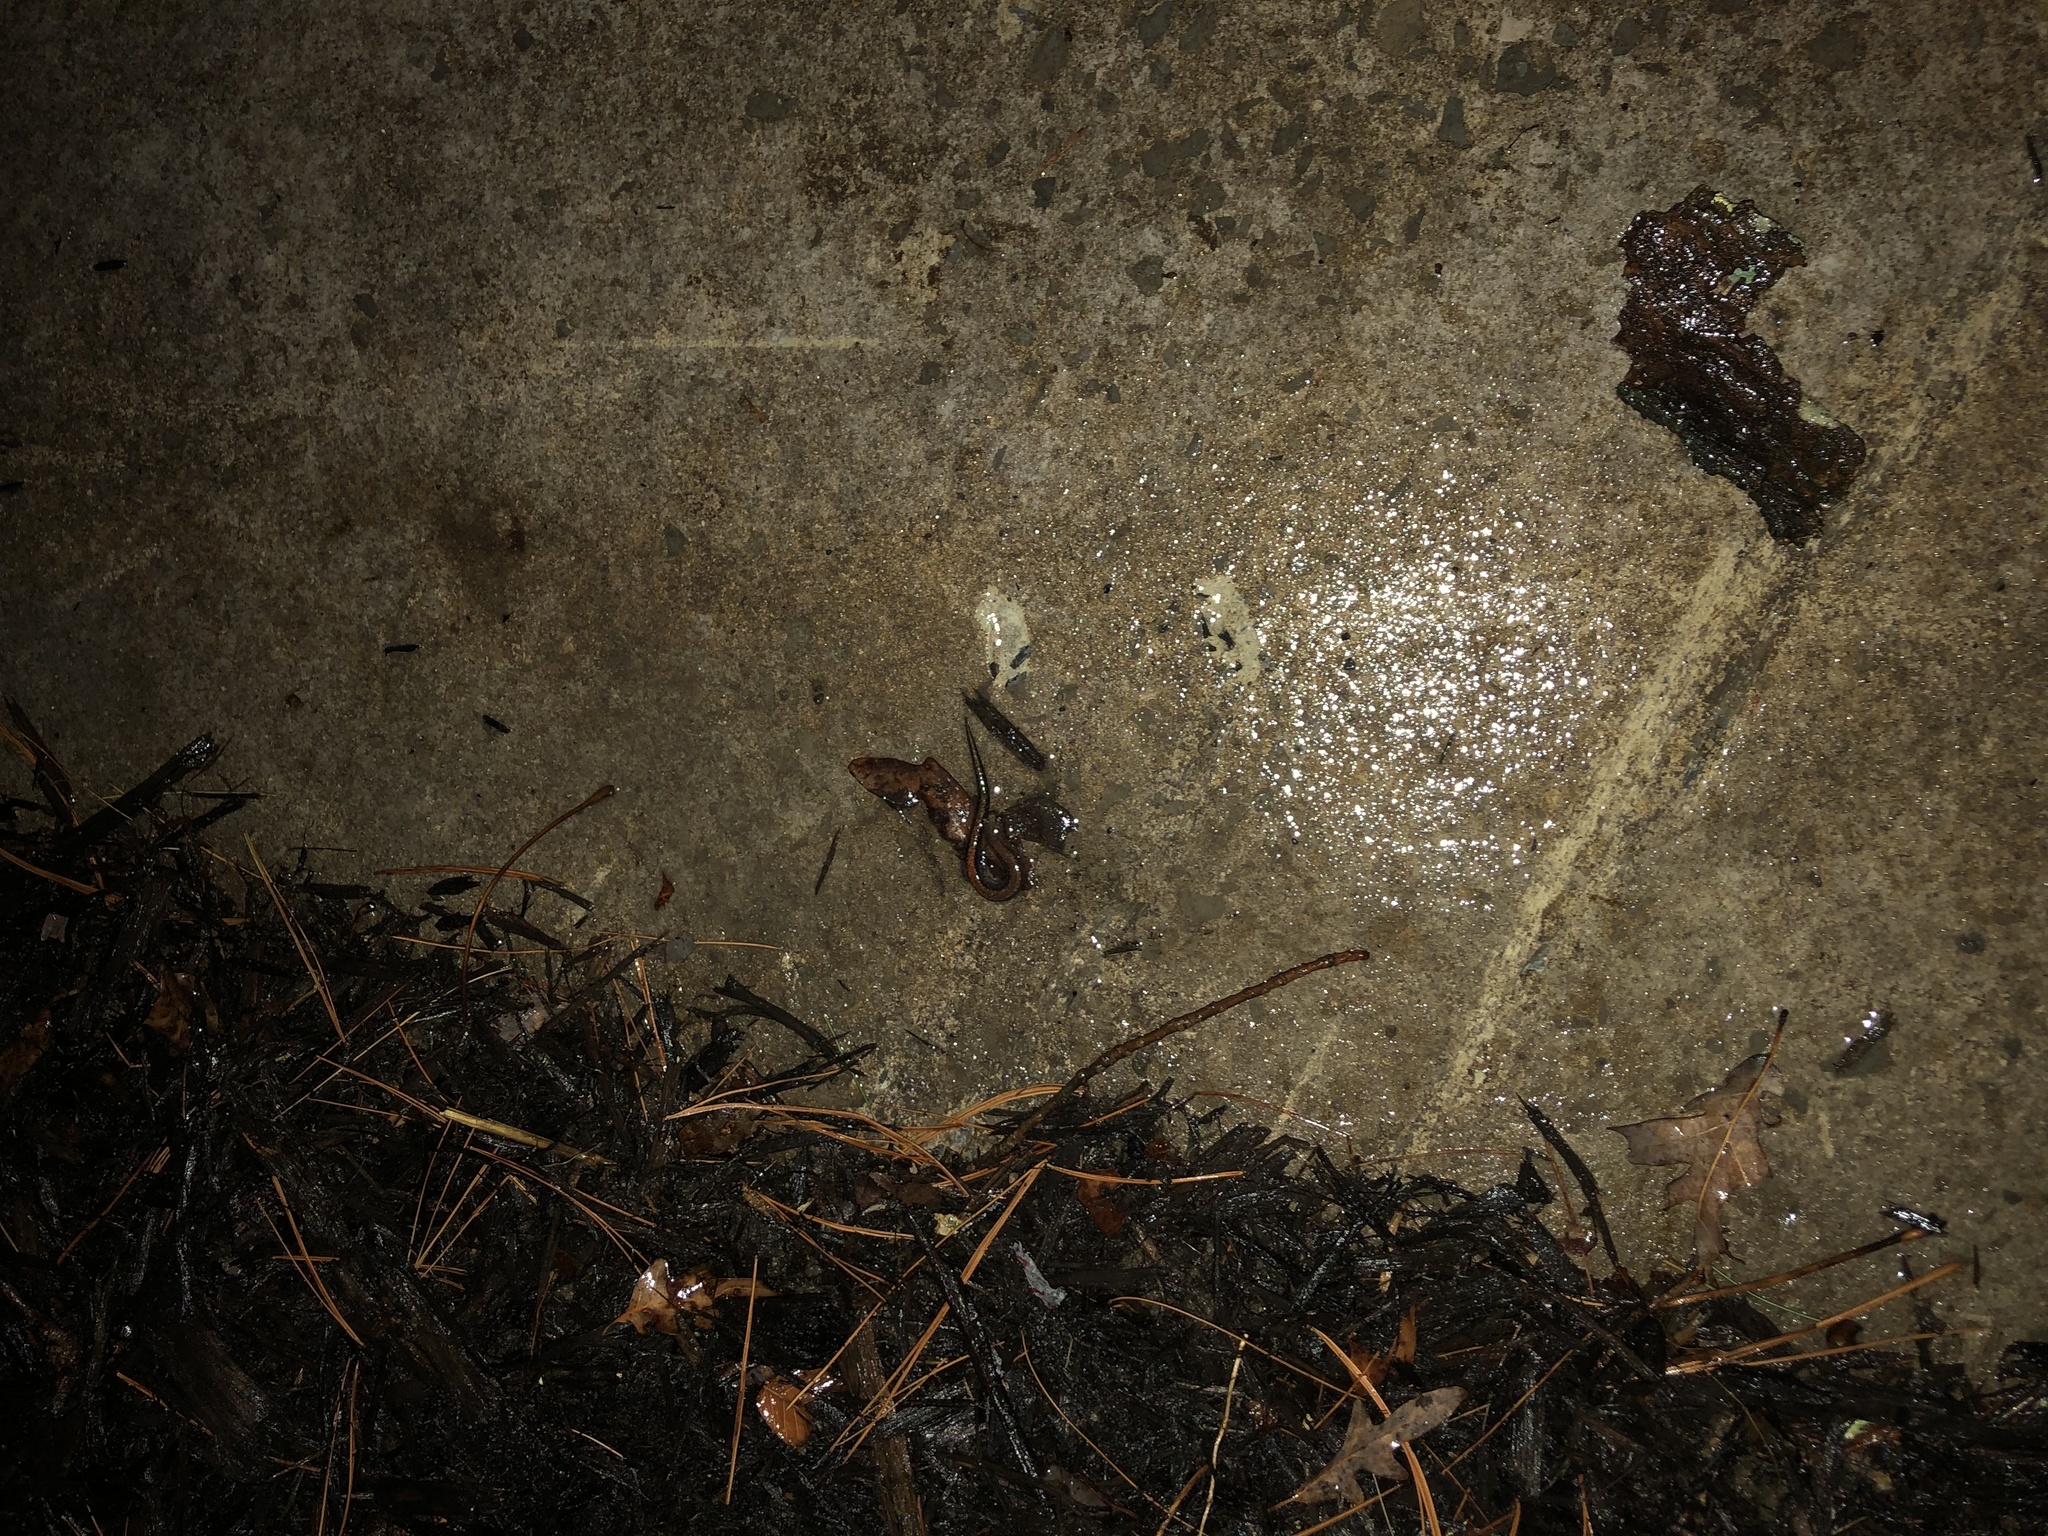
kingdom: Animalia
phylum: Chordata
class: Amphibia
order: Caudata
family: Plethodontidae
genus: Plethodon
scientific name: Plethodon cinereus
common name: Redback salamander
